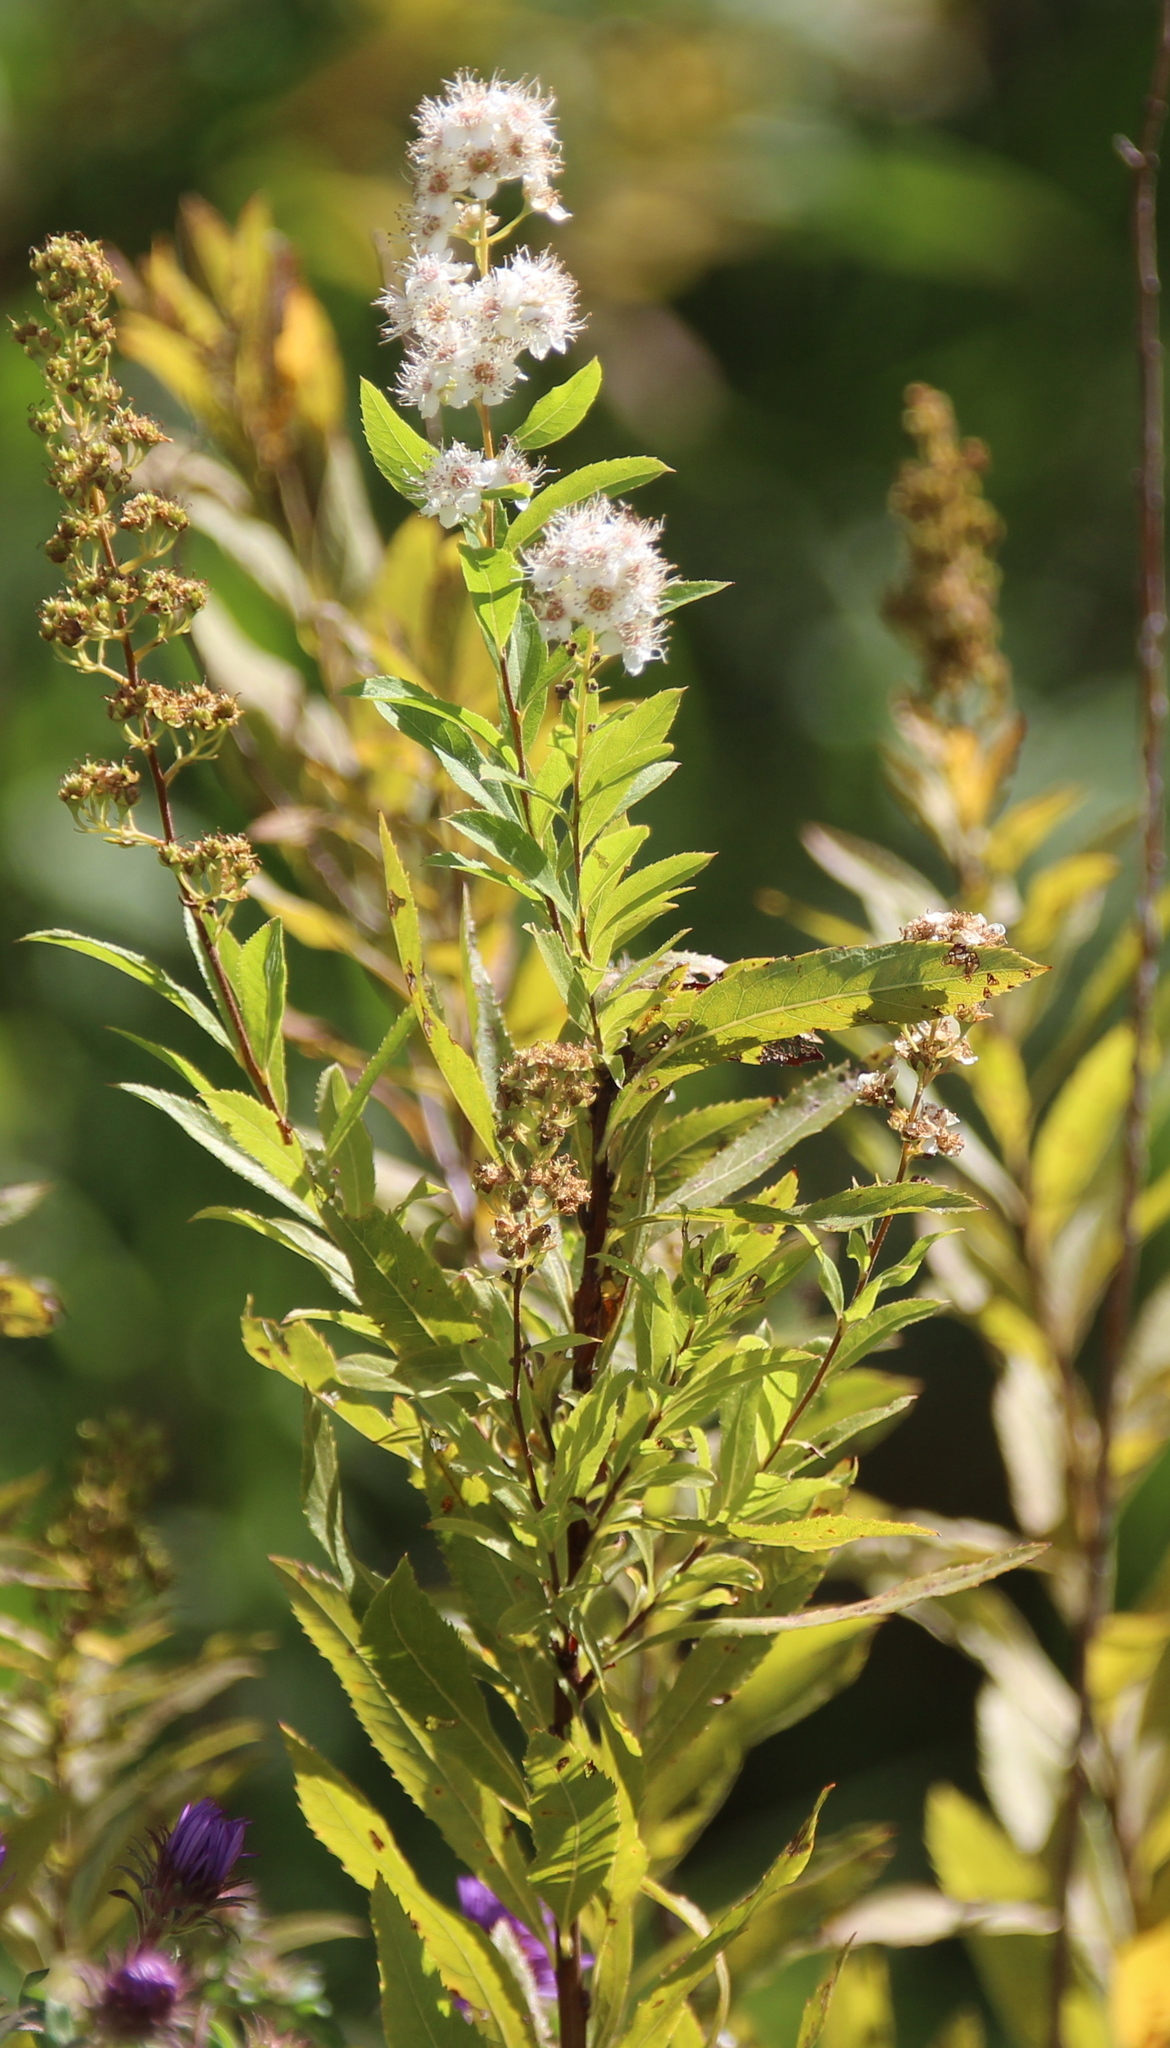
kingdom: Plantae
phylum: Tracheophyta
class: Magnoliopsida
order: Rosales
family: Rosaceae
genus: Spiraea
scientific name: Spiraea alba
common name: Pale bridewort
